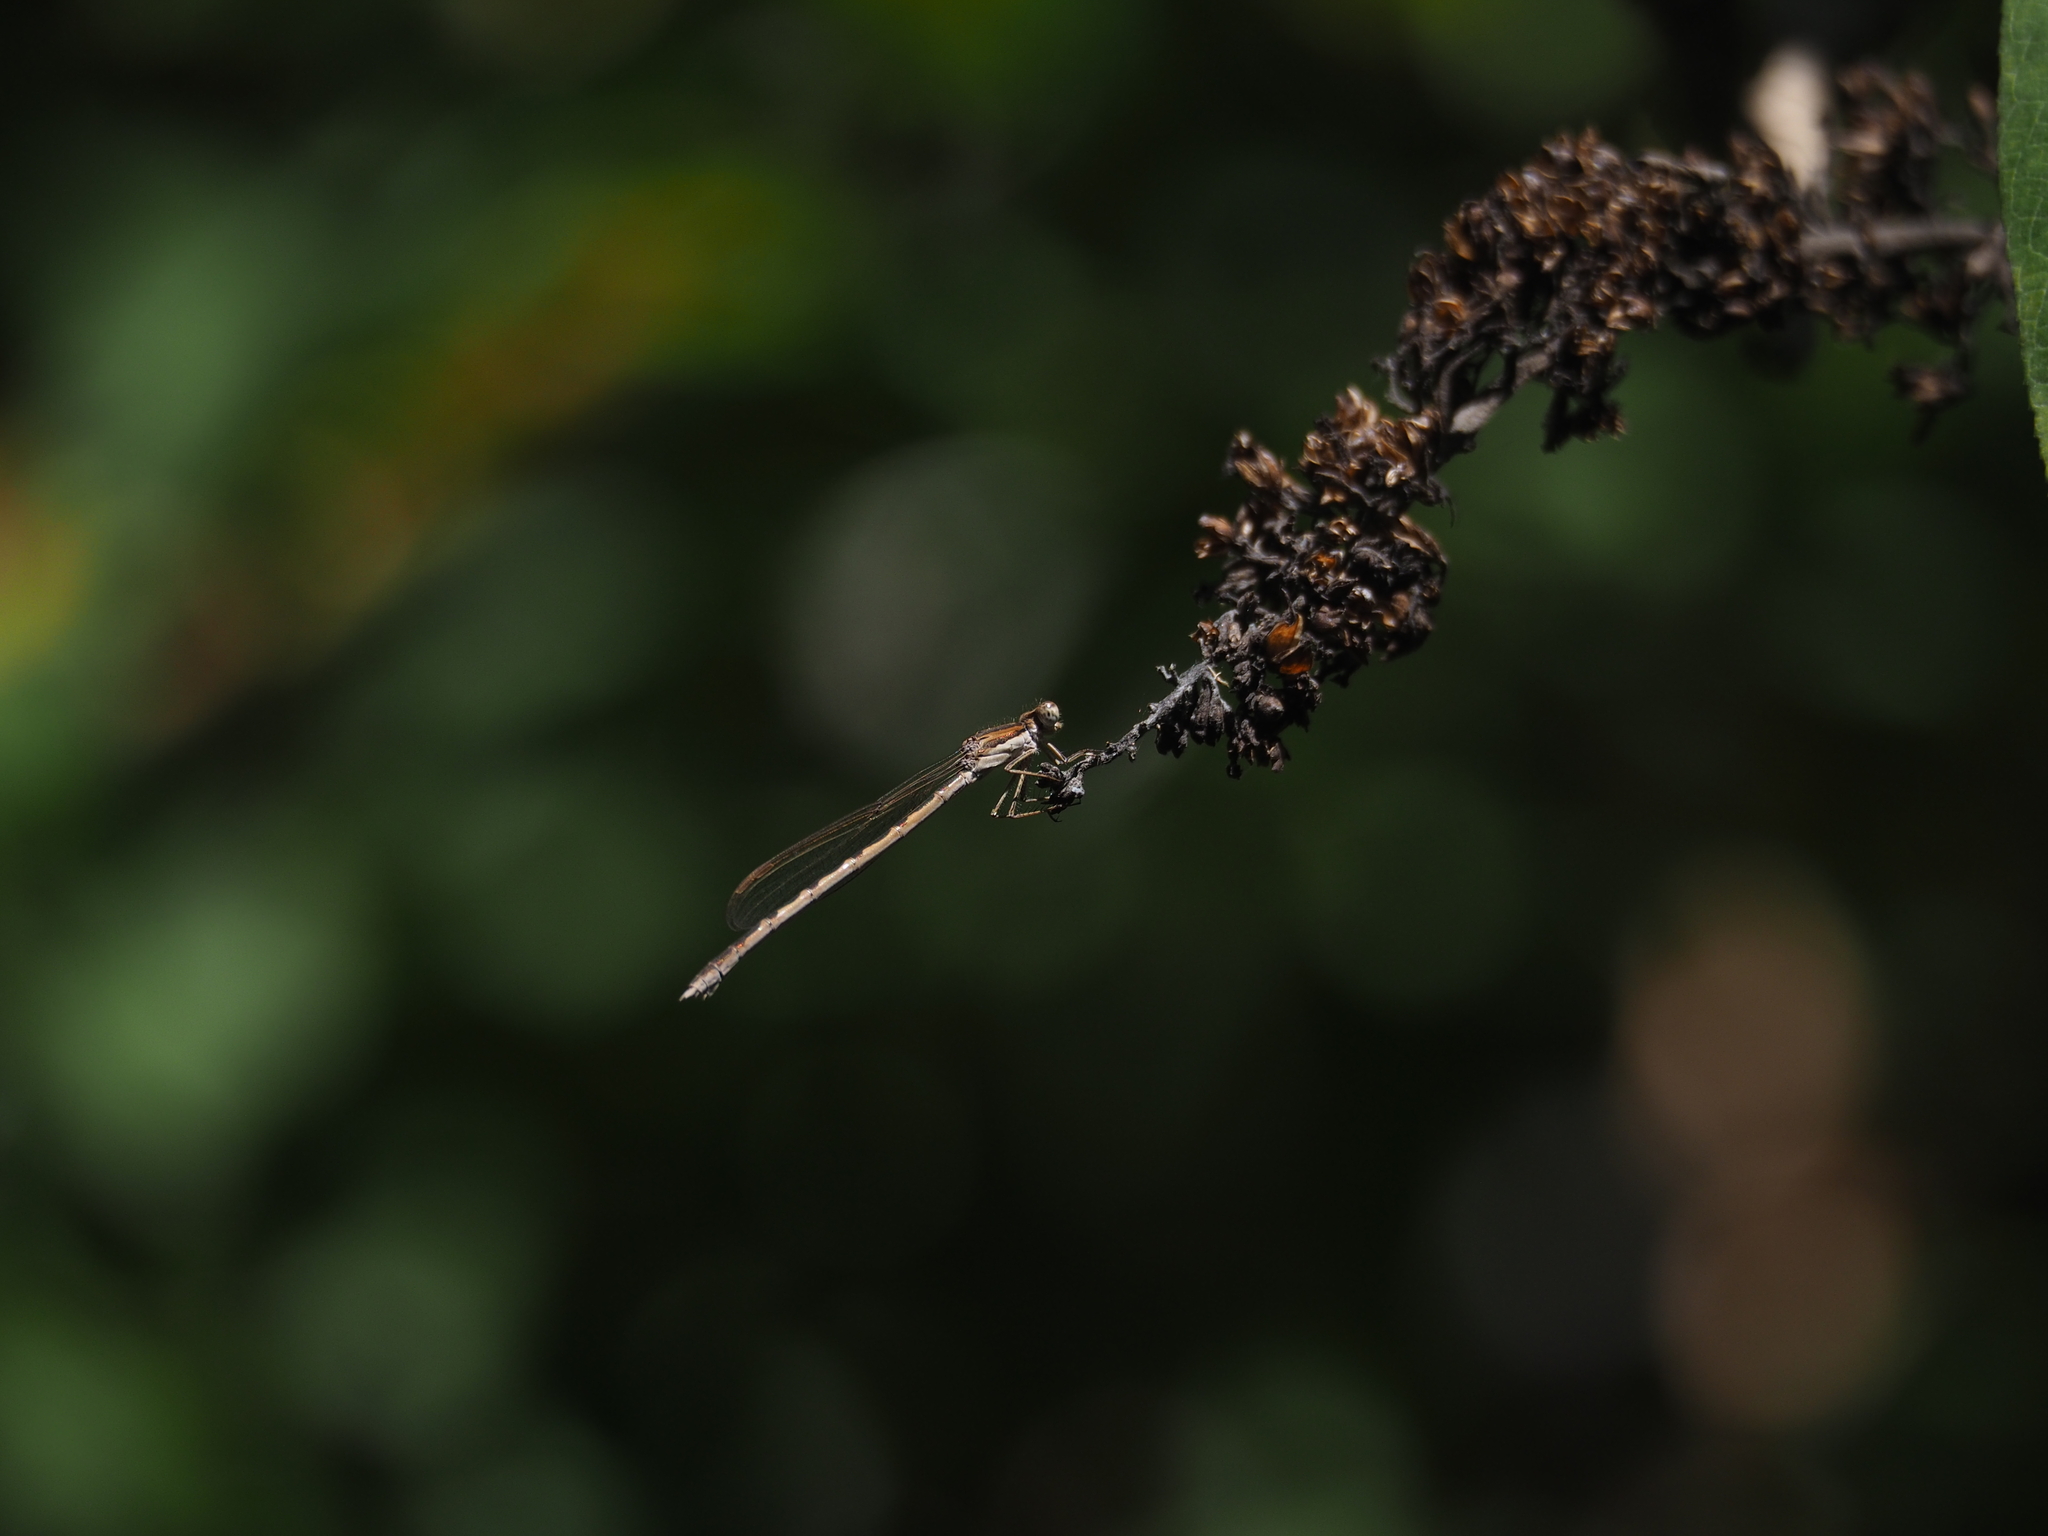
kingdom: Animalia
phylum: Arthropoda
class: Insecta
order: Odonata
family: Lestidae
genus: Sympecma
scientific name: Sympecma fusca
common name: Common winter damsel
